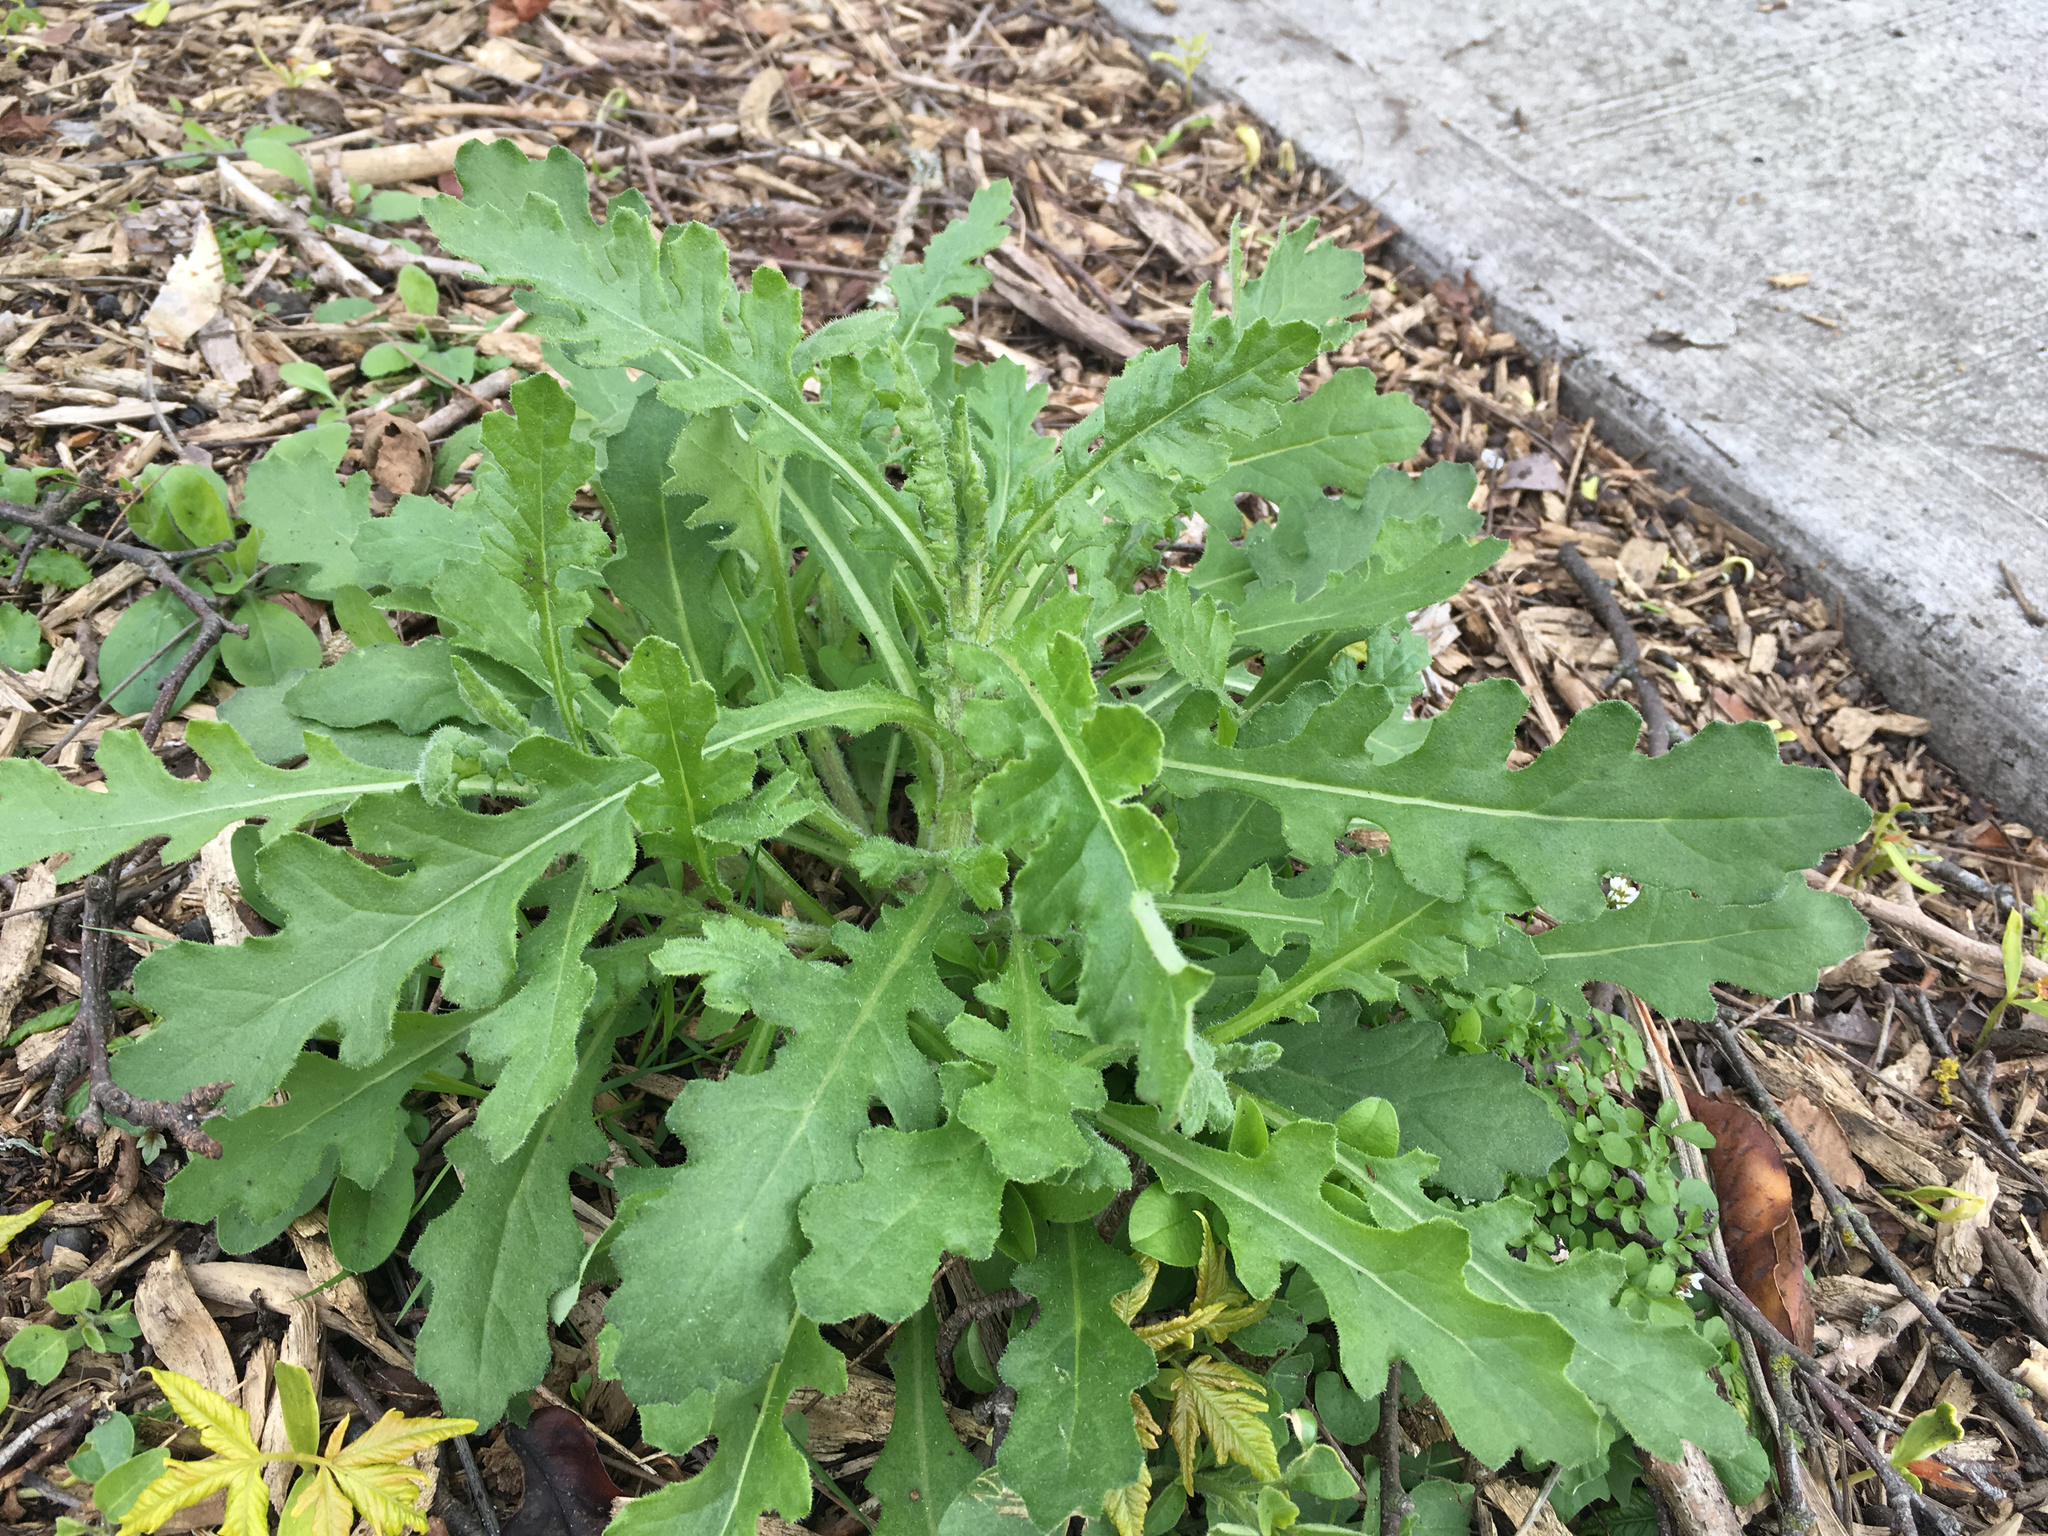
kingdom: Plantae
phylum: Tracheophyta
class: Magnoliopsida
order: Asterales
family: Asteraceae
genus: Senecio
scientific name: Senecio glomeratus
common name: Cutleaf burnweed
